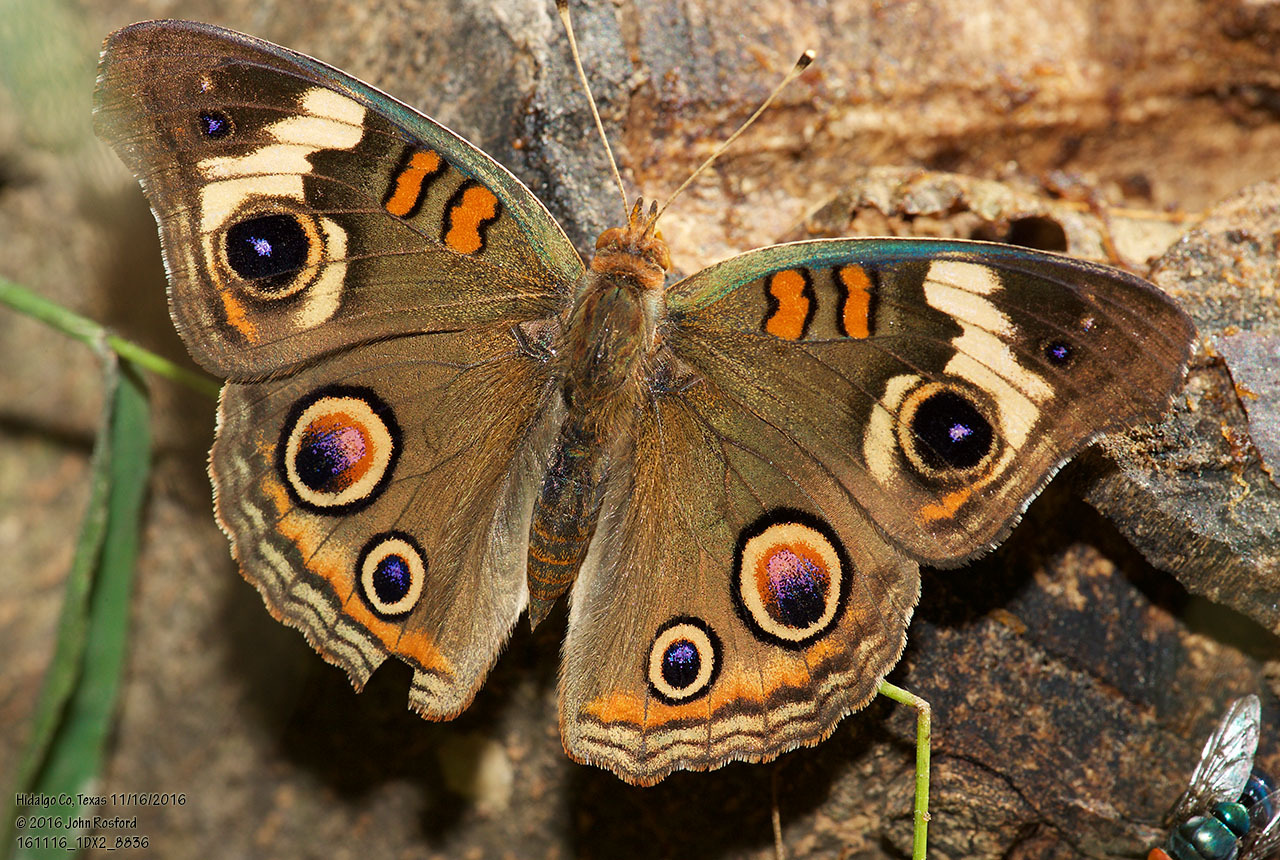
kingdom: Animalia
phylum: Arthropoda
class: Insecta
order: Lepidoptera
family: Nymphalidae
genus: Junonia
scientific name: Junonia coenia
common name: Common buckeye
